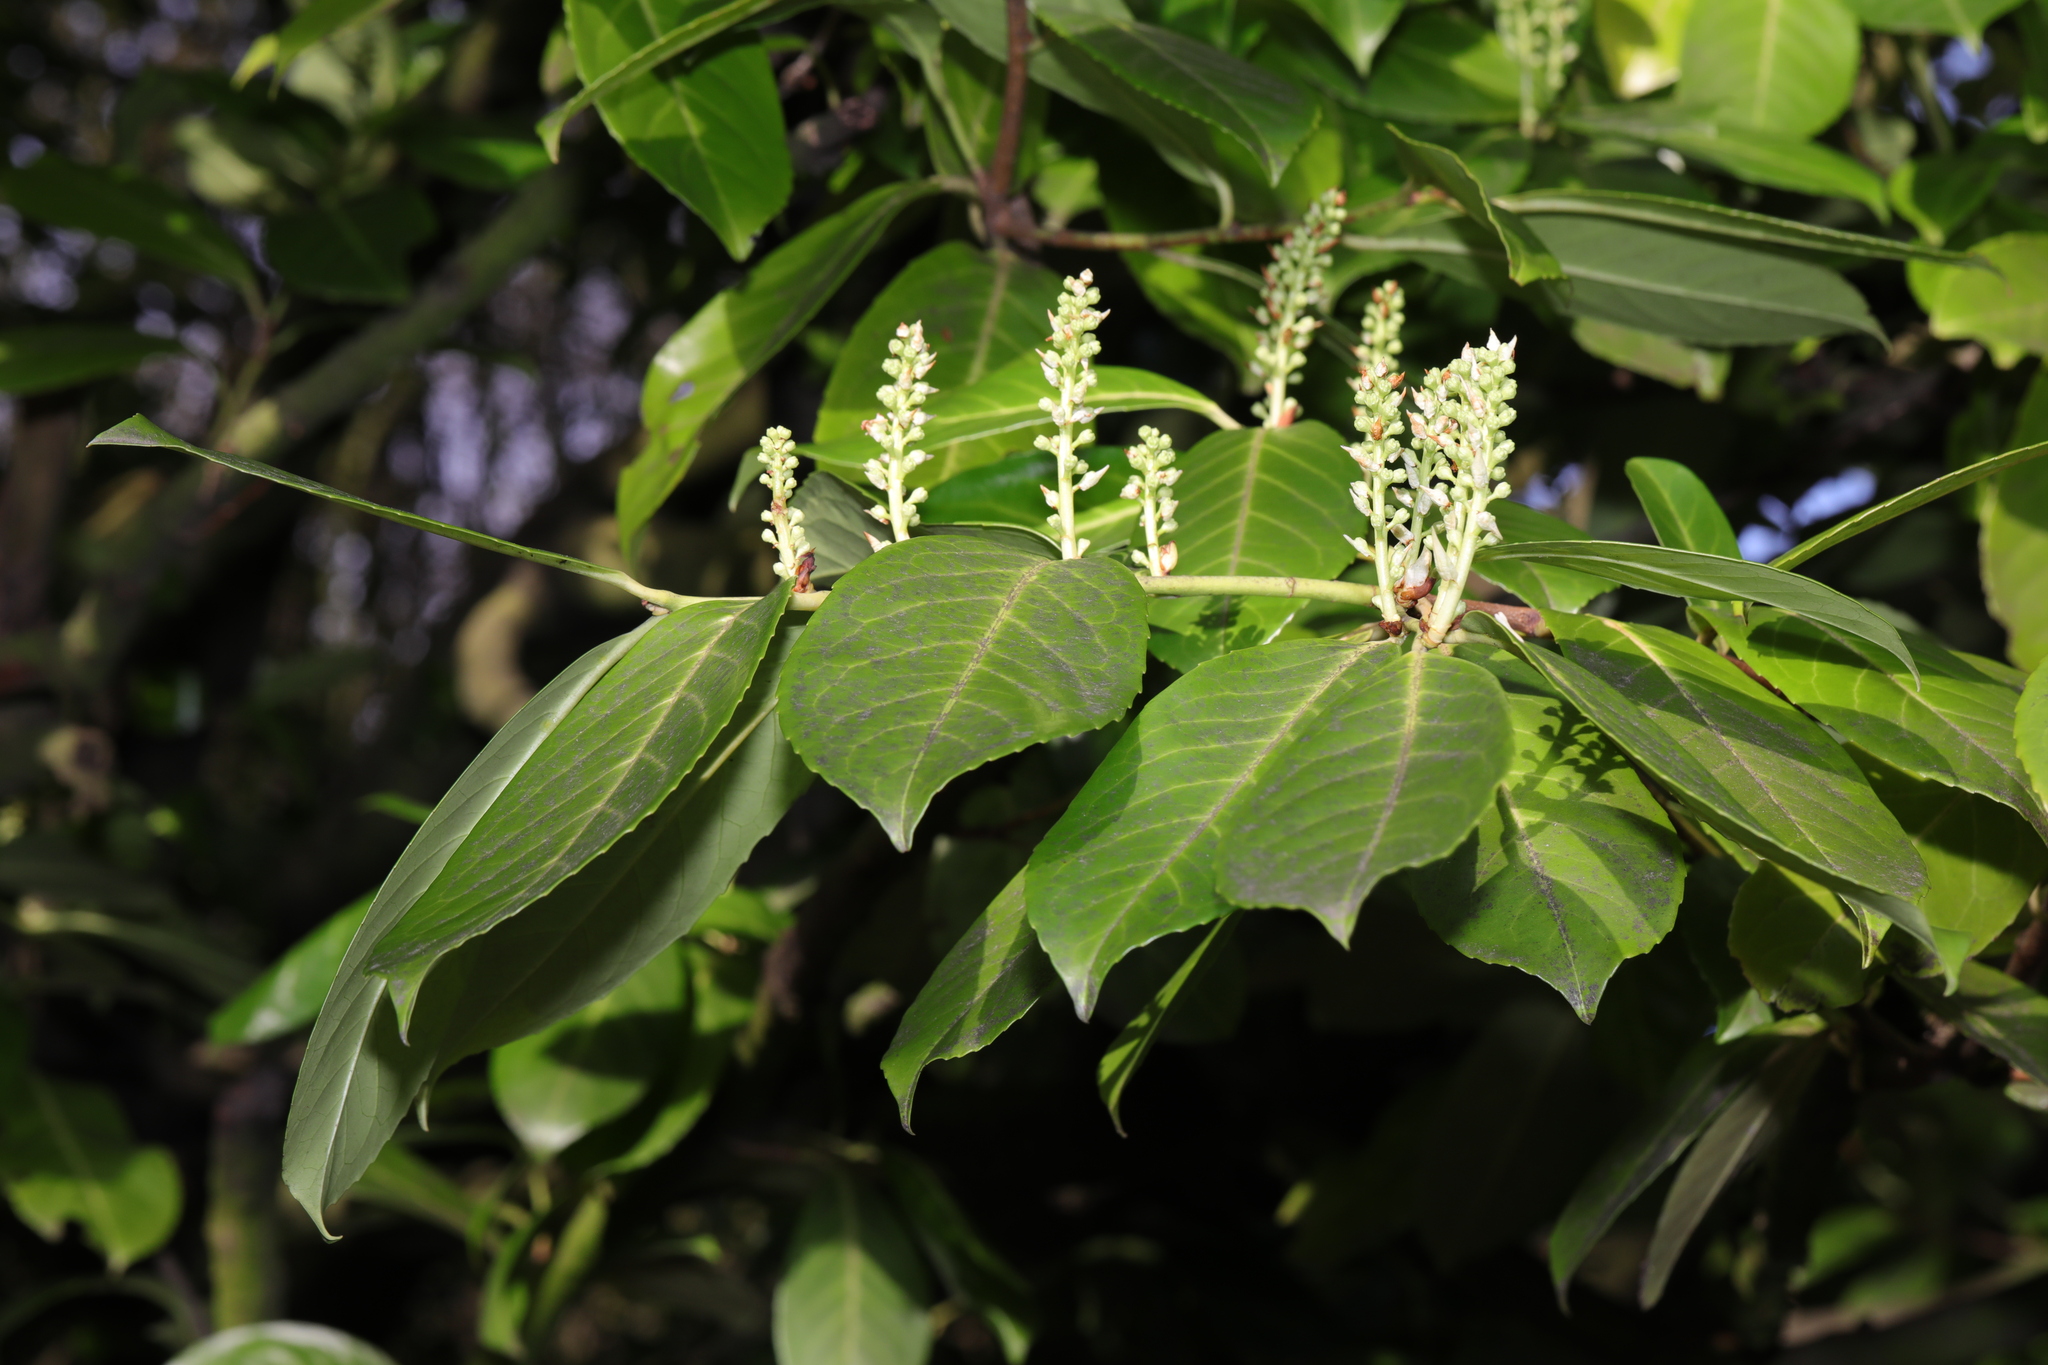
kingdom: Plantae
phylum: Tracheophyta
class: Magnoliopsida
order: Rosales
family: Rosaceae
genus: Prunus
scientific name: Prunus laurocerasus
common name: Cherry laurel
